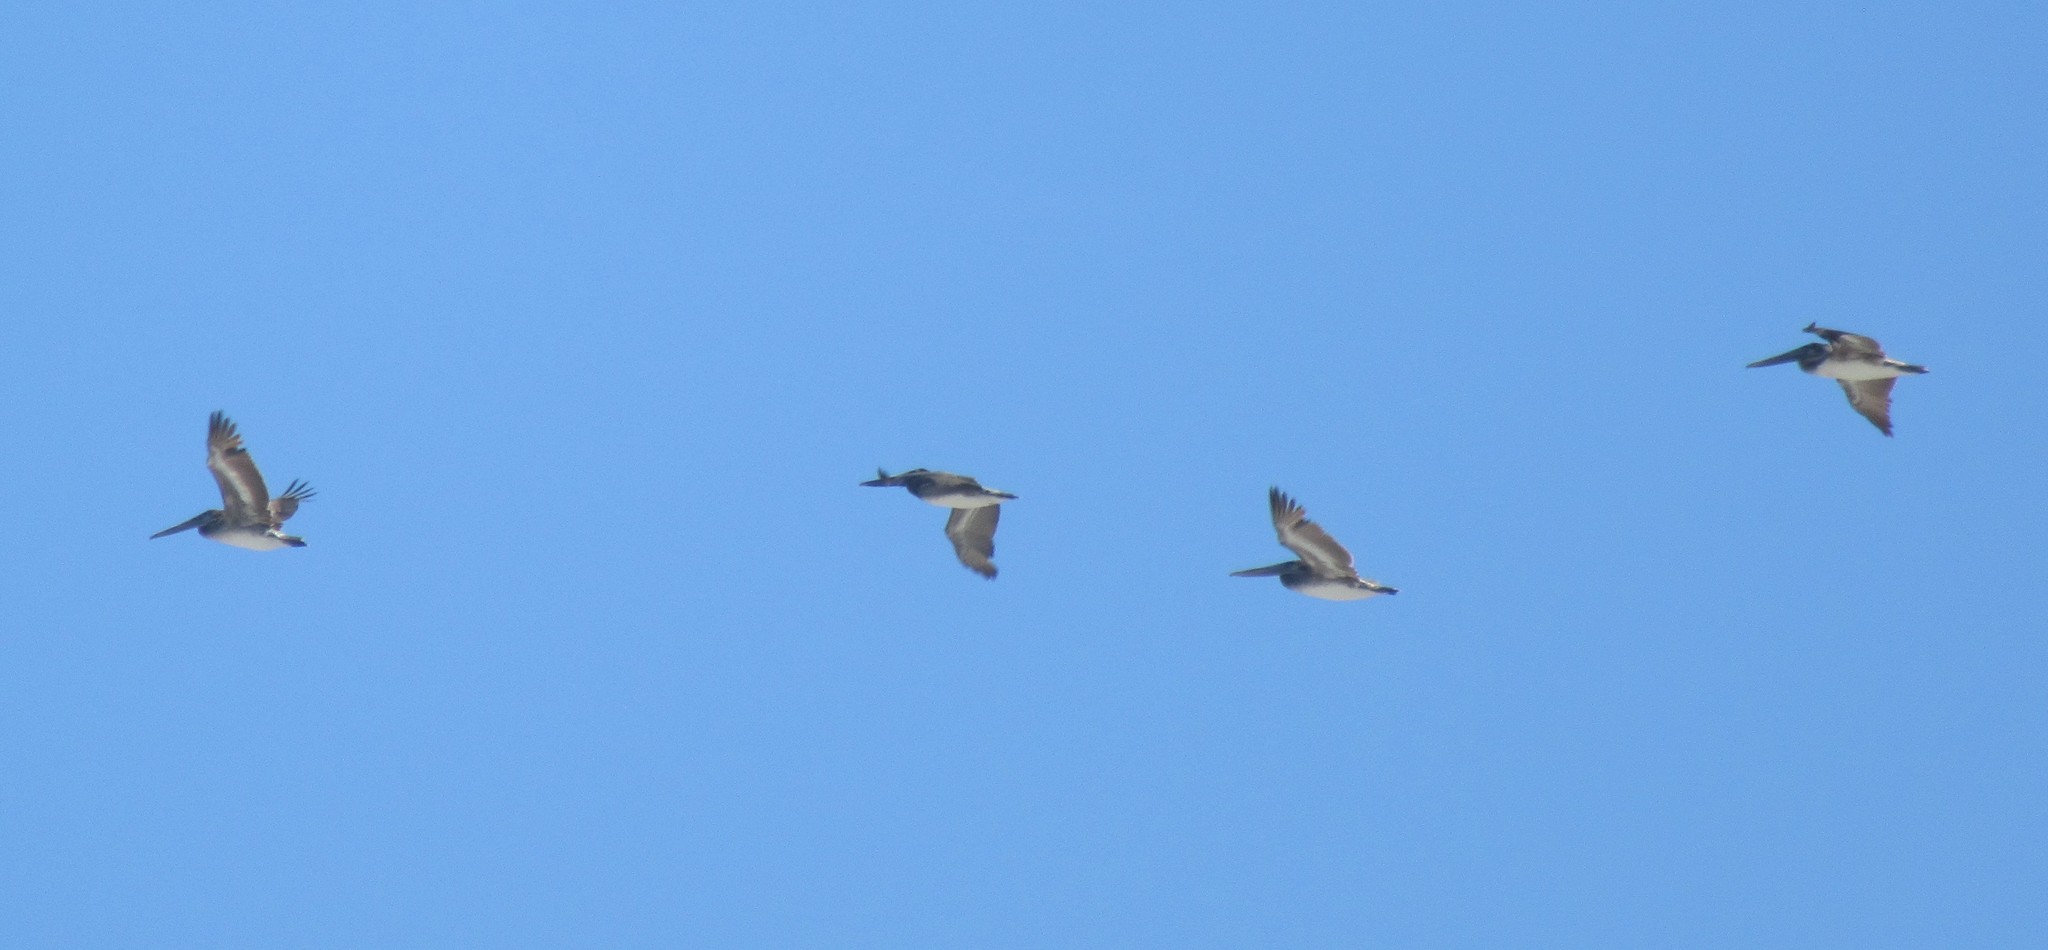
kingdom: Animalia
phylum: Chordata
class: Aves
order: Pelecaniformes
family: Pelecanidae
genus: Pelecanus
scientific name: Pelecanus occidentalis
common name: Brown pelican
